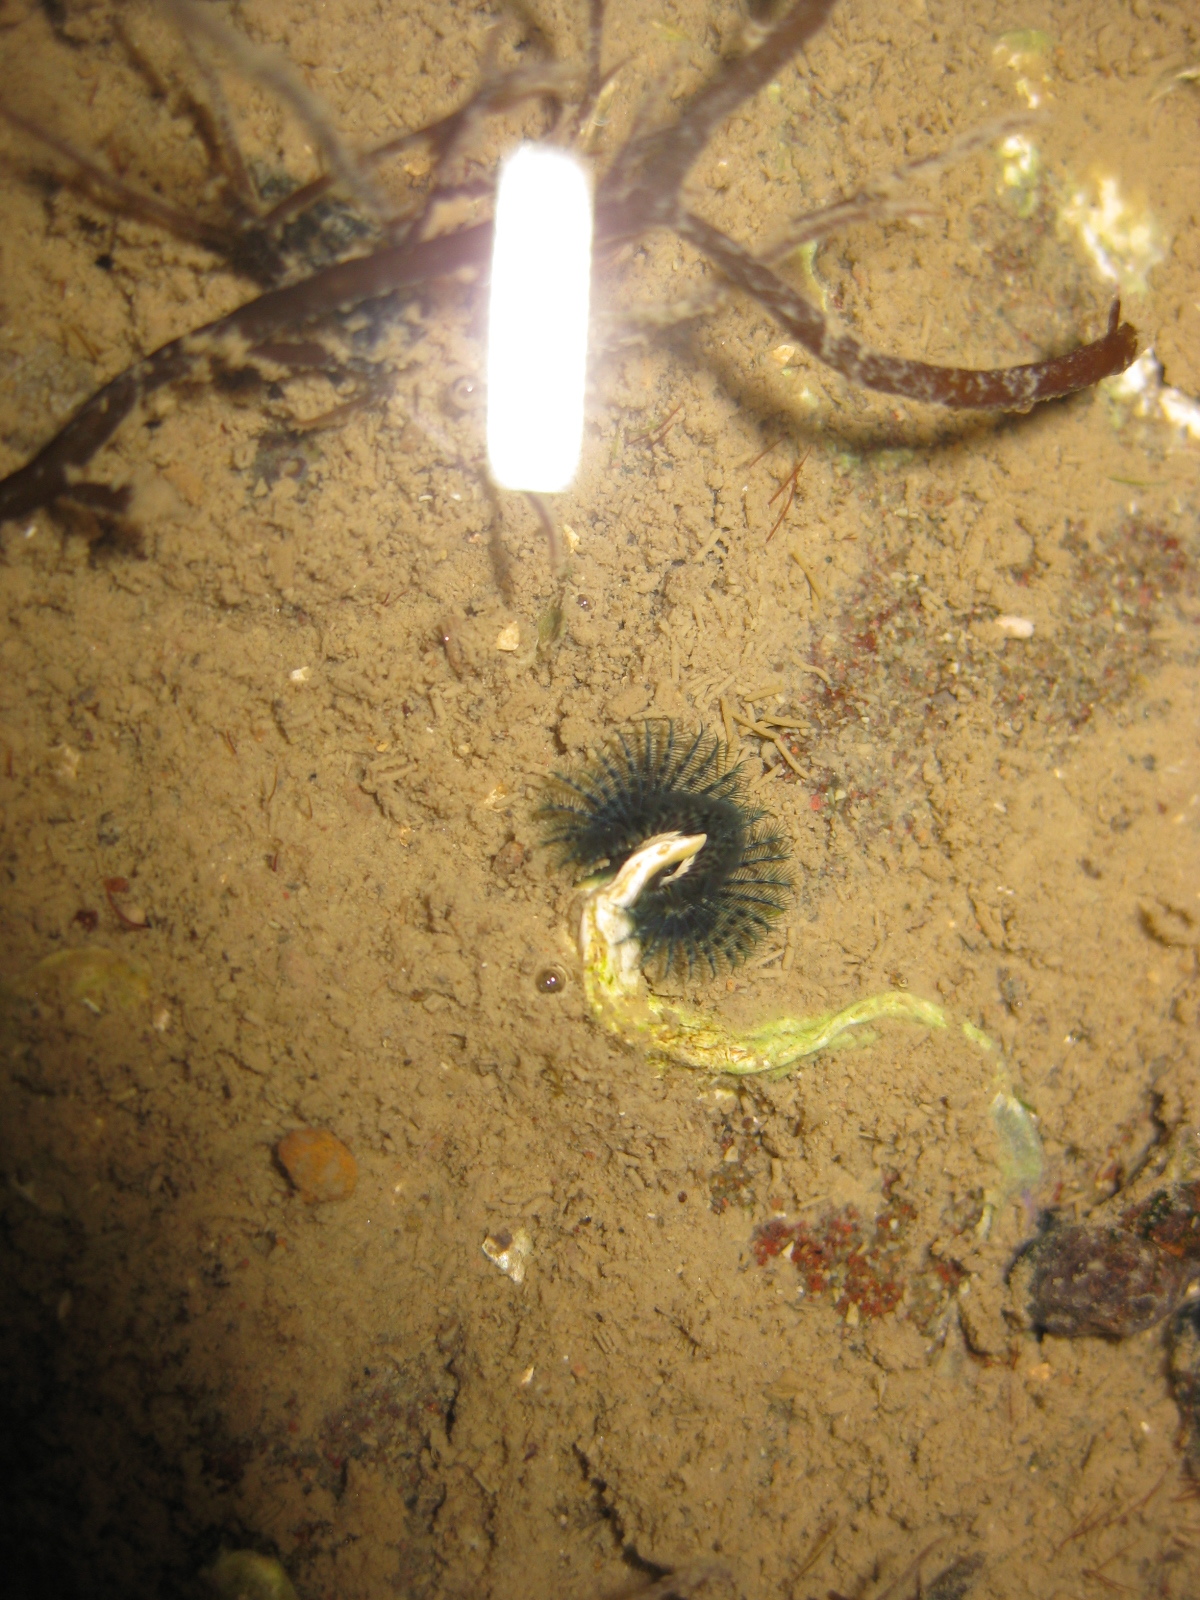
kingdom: Animalia
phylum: Annelida
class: Polychaeta
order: Sabellida
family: Serpulidae
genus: Spirobranchus
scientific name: Spirobranchus cariniferus
